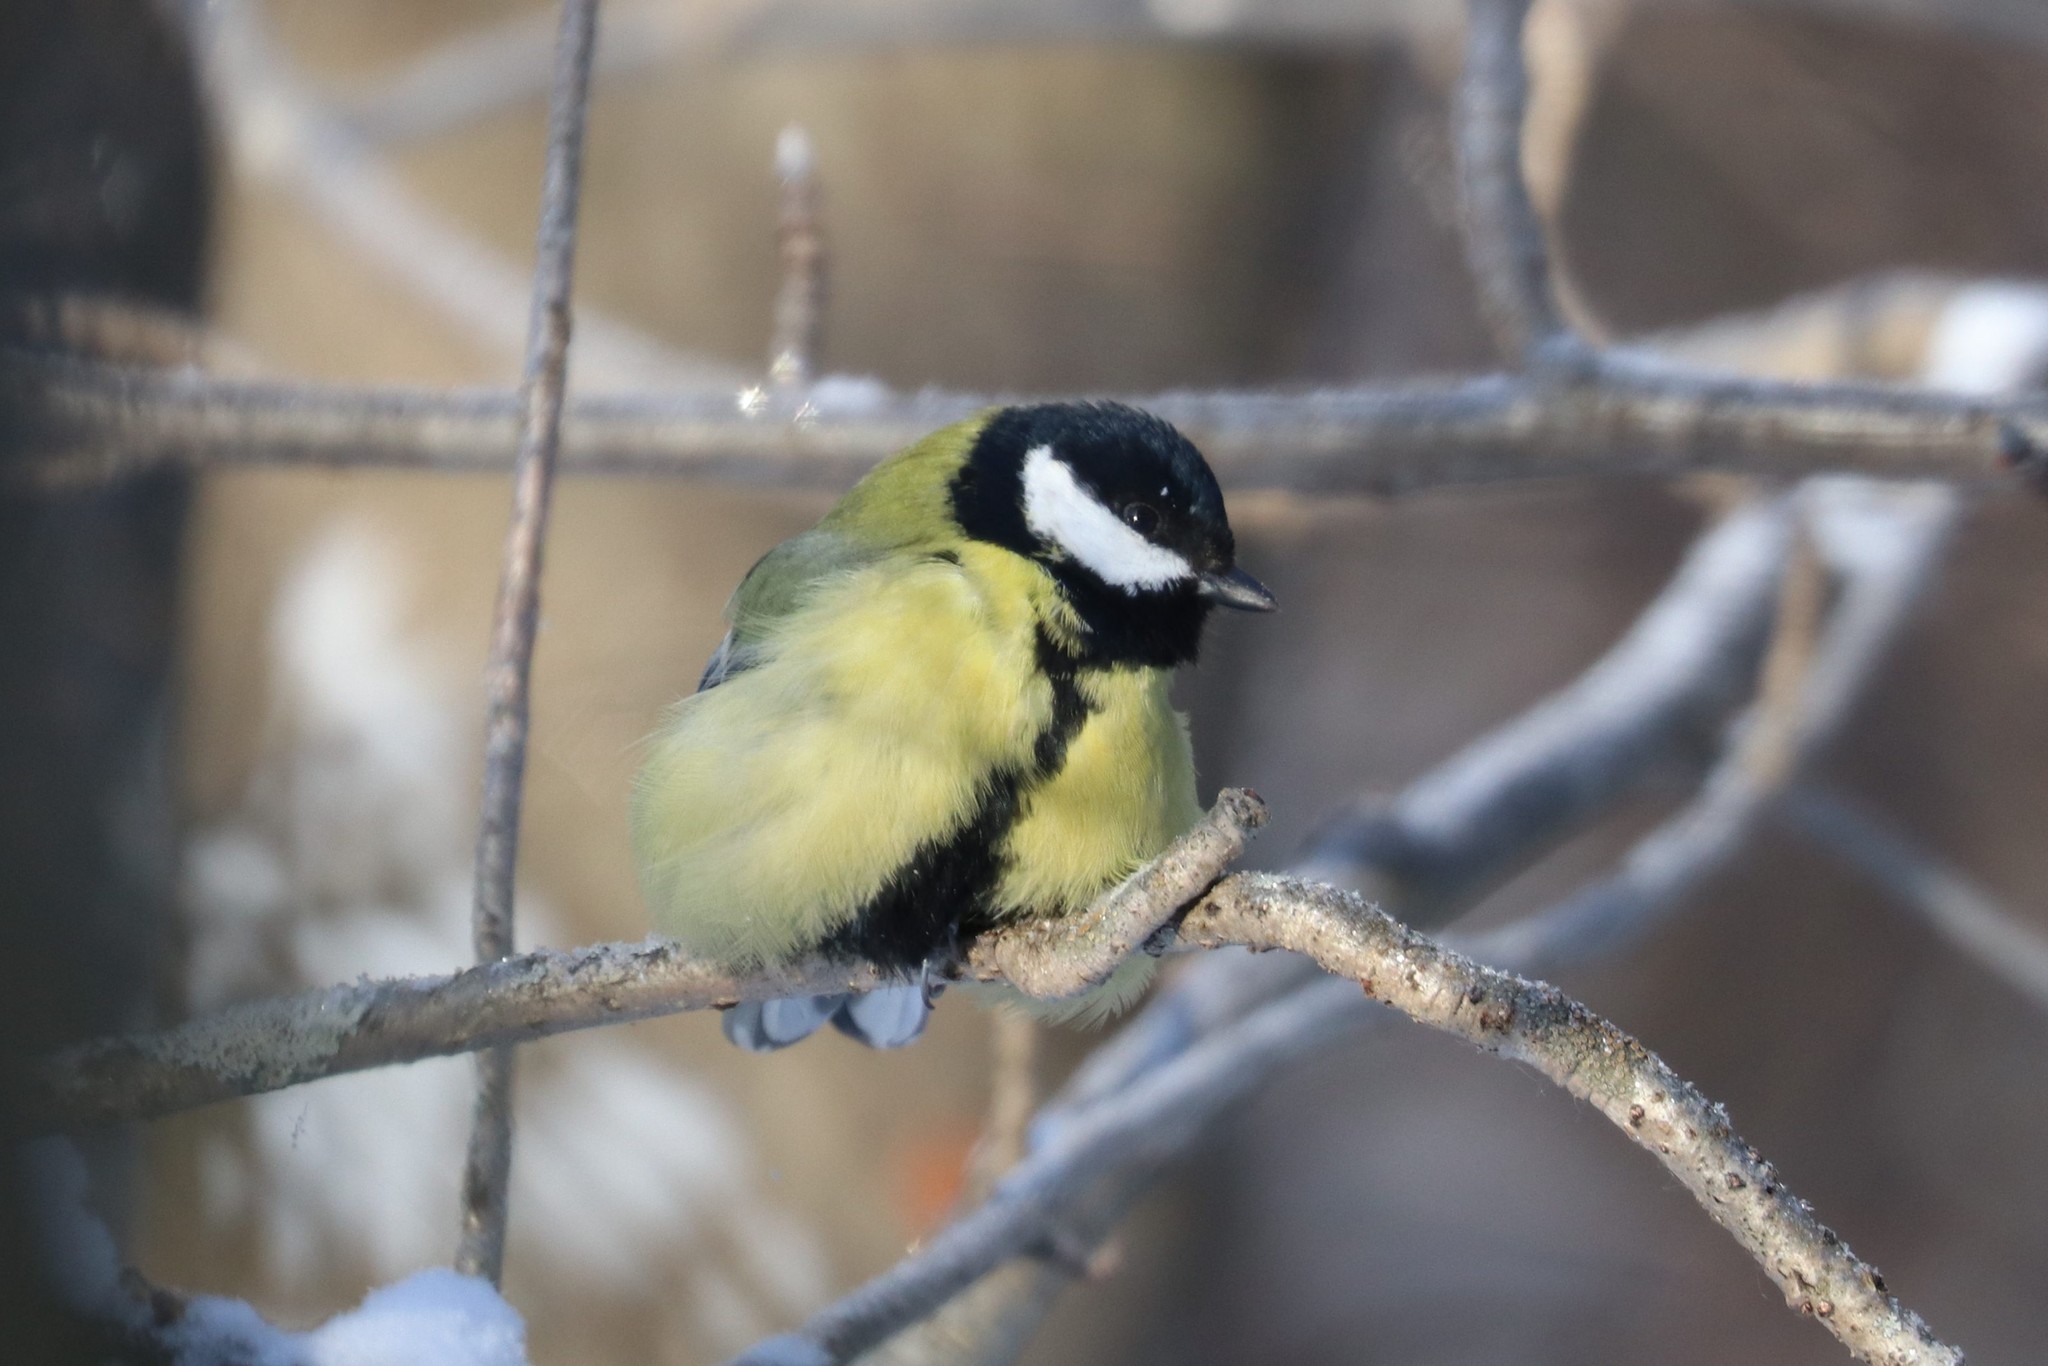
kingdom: Animalia
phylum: Chordata
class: Aves
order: Passeriformes
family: Paridae
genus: Parus
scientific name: Parus major
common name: Great tit
